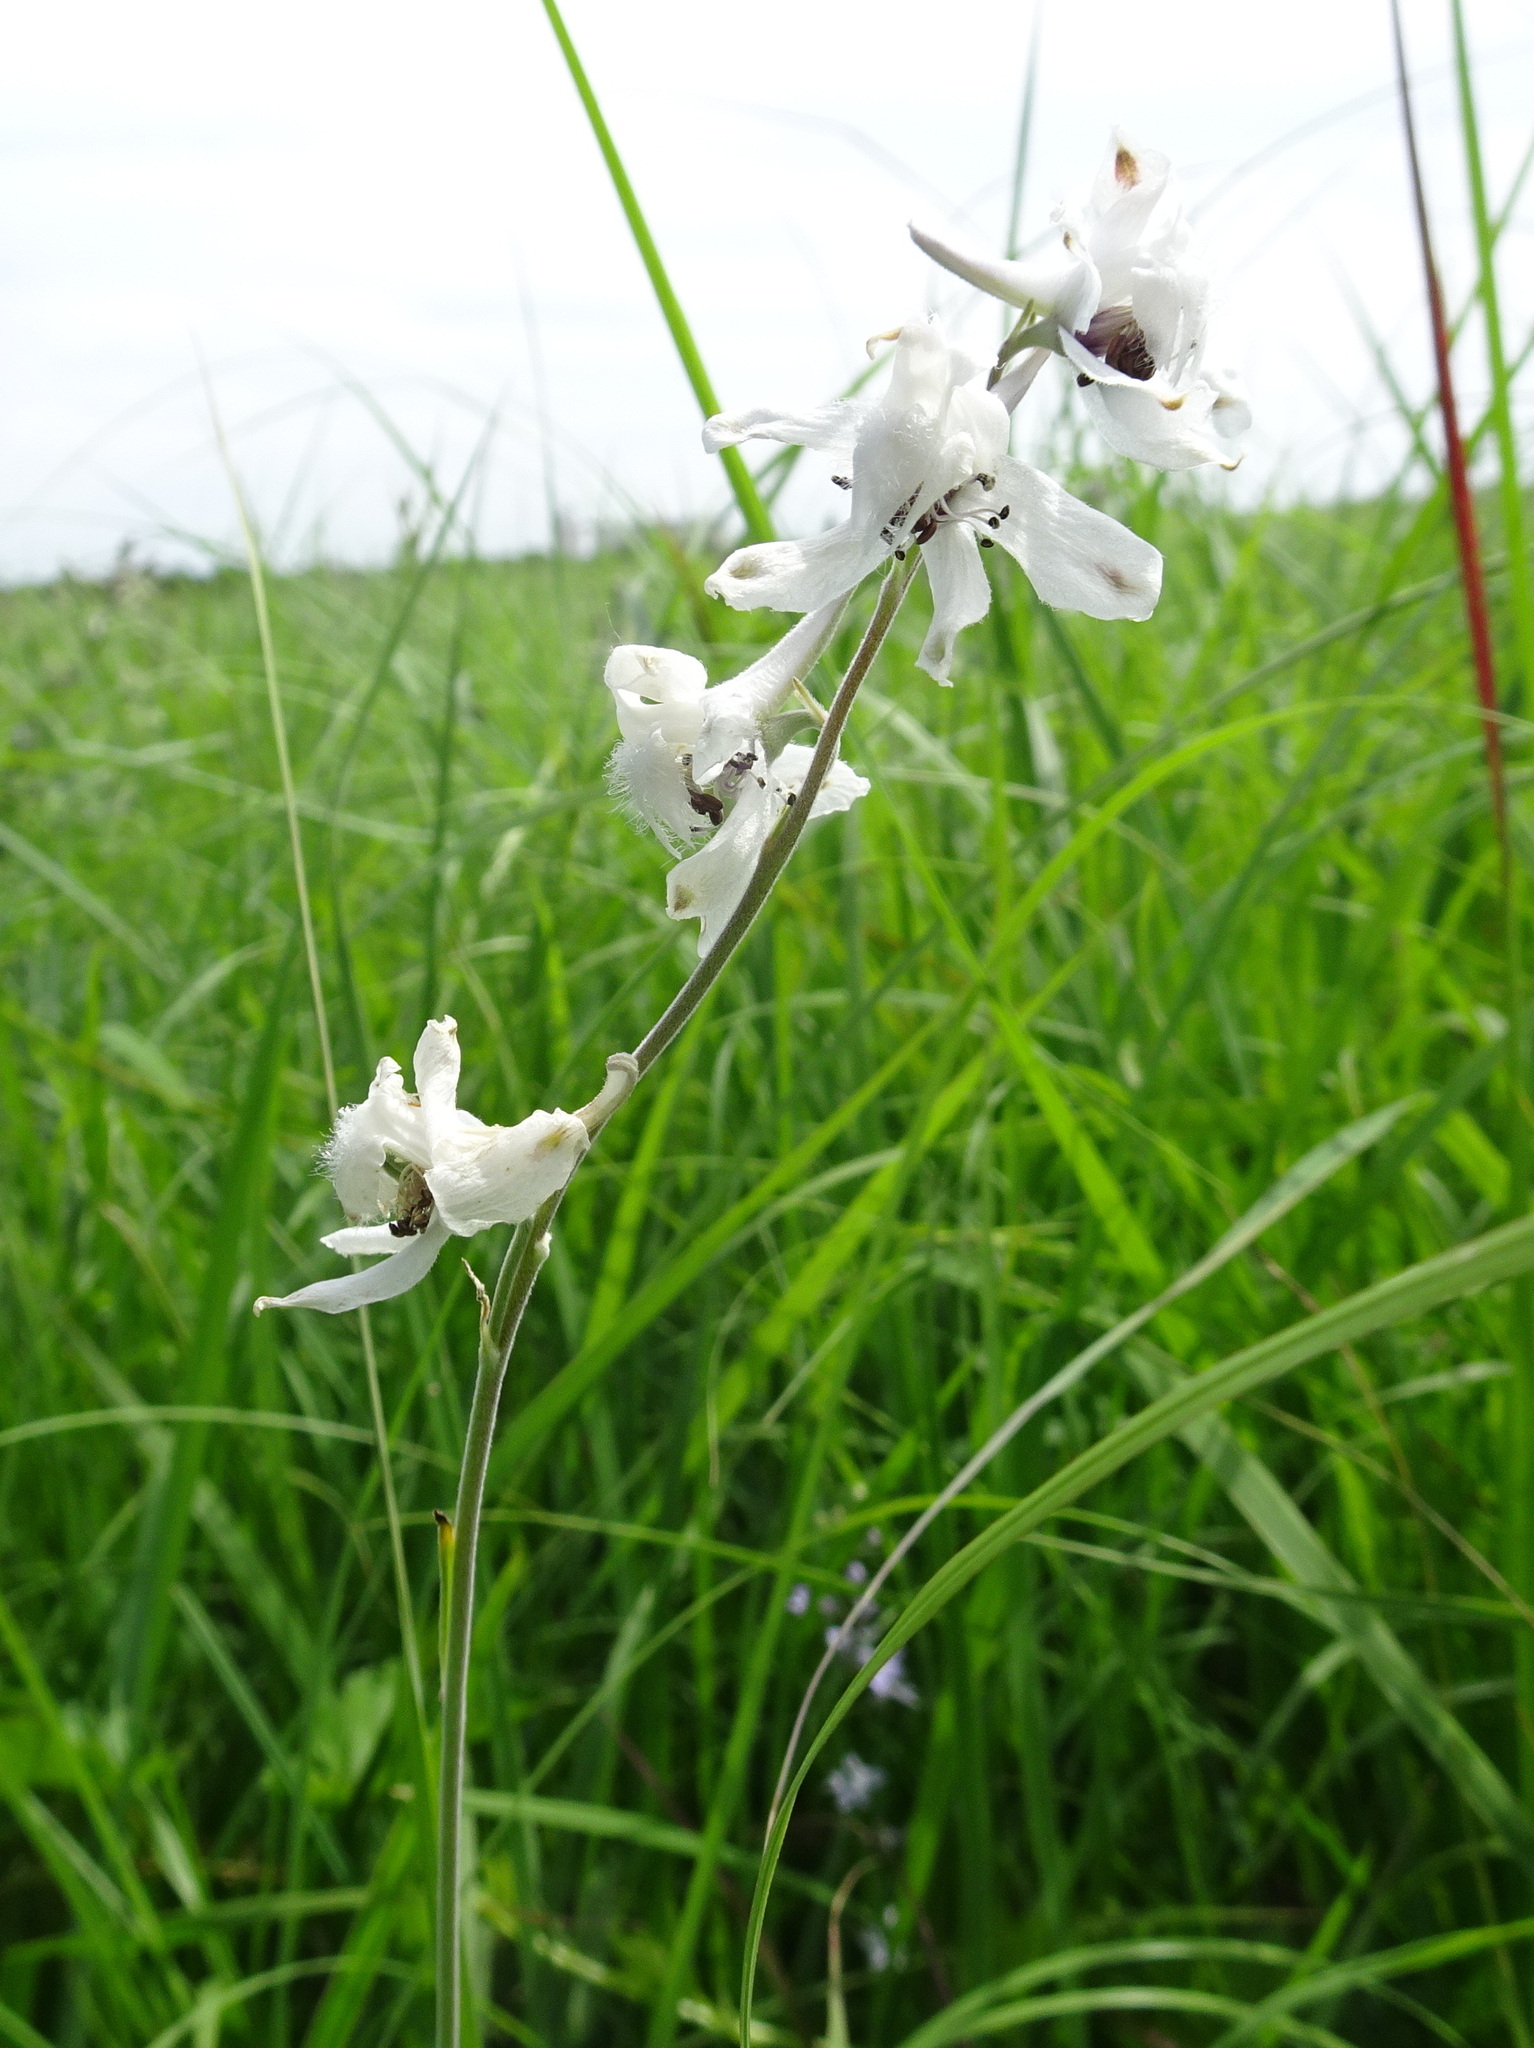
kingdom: Plantae
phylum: Tracheophyta
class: Magnoliopsida
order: Ranunculales
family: Ranunculaceae
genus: Delphinium
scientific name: Delphinium carolinianum
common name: Carolina larkspur
